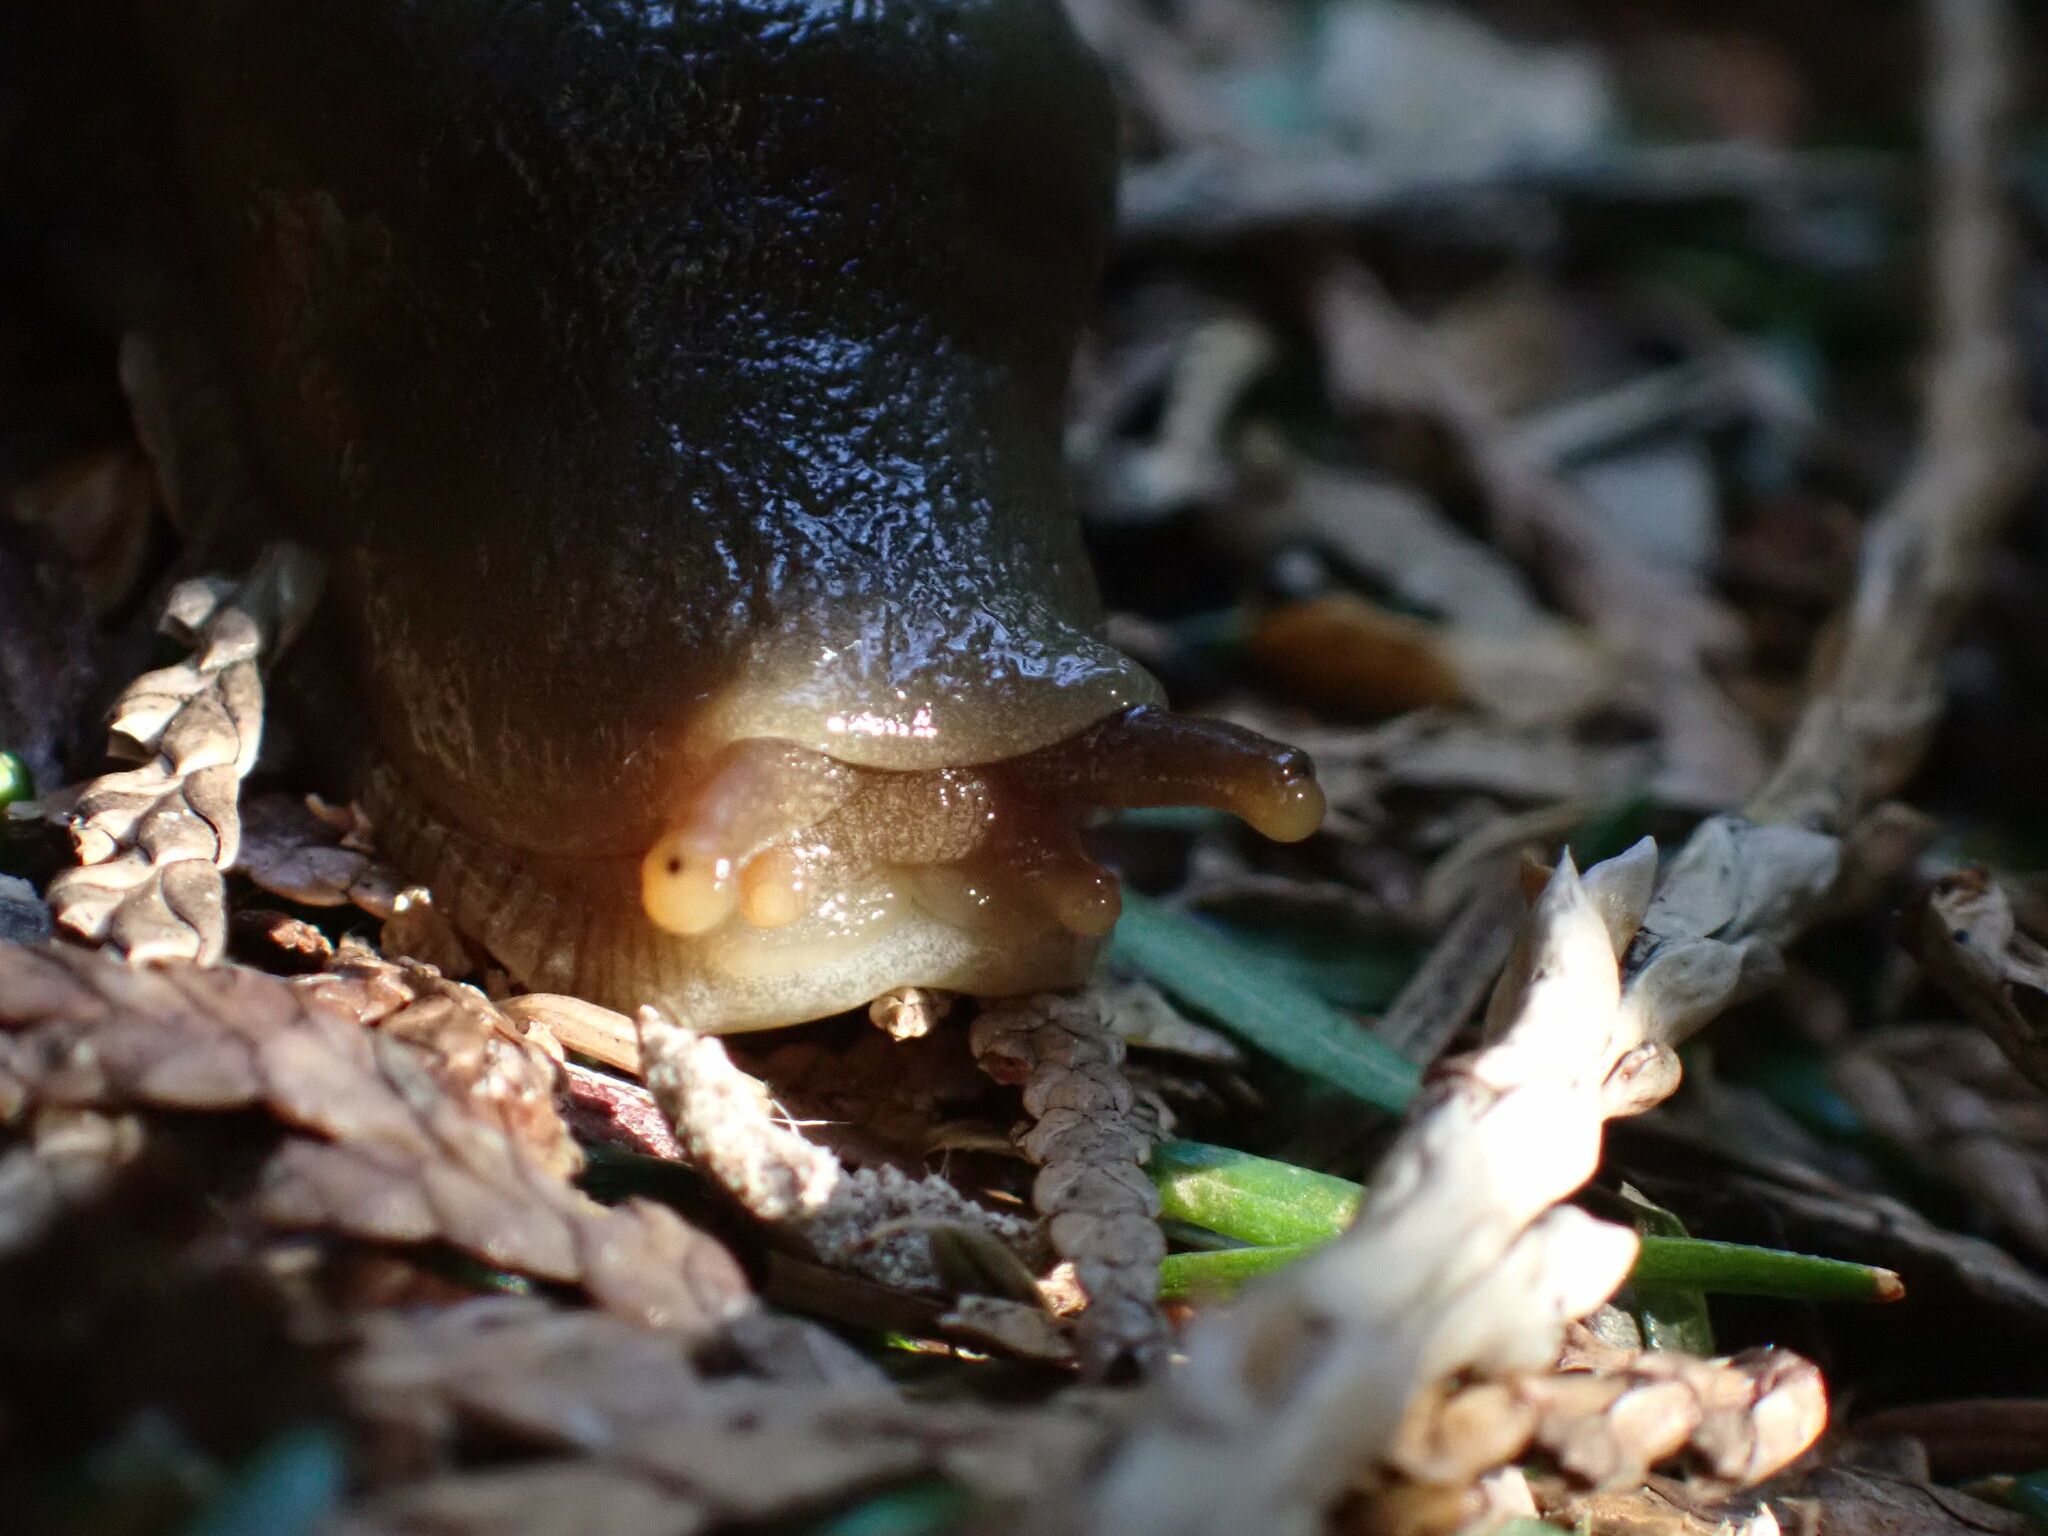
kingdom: Animalia
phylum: Mollusca
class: Gastropoda
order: Stylommatophora
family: Ariolimacidae
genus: Ariolimax
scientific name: Ariolimax columbianus
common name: Pacific banana slug
